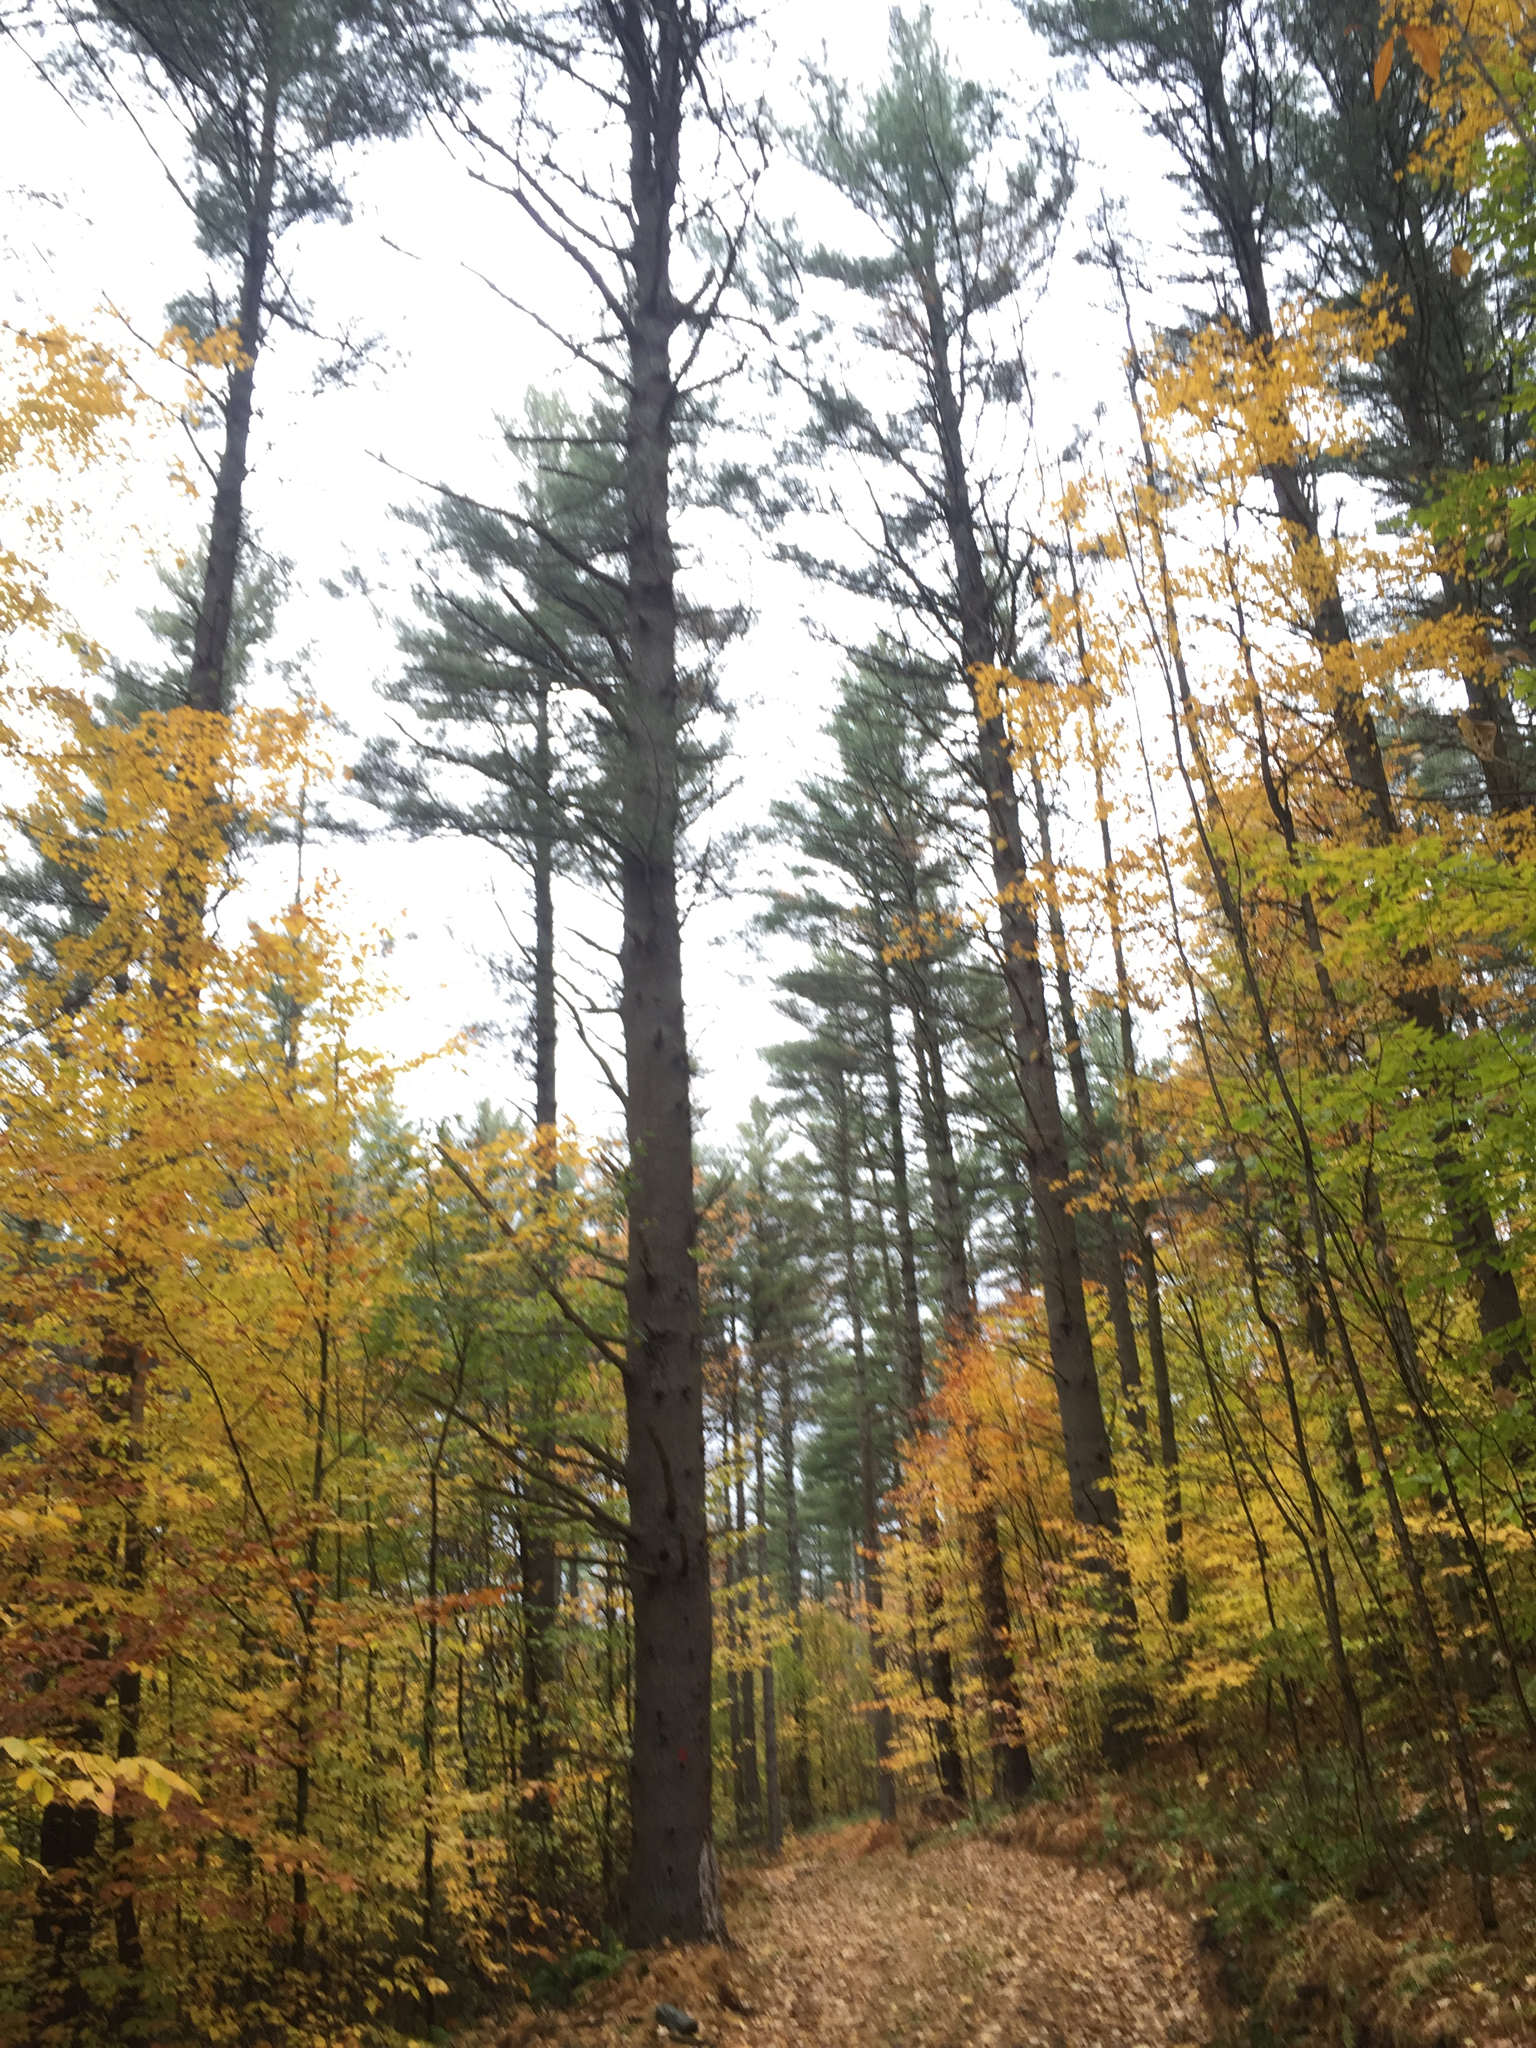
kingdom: Plantae
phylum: Tracheophyta
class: Magnoliopsida
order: Fagales
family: Fagaceae
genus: Fagus
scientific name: Fagus grandifolia
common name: American beech
